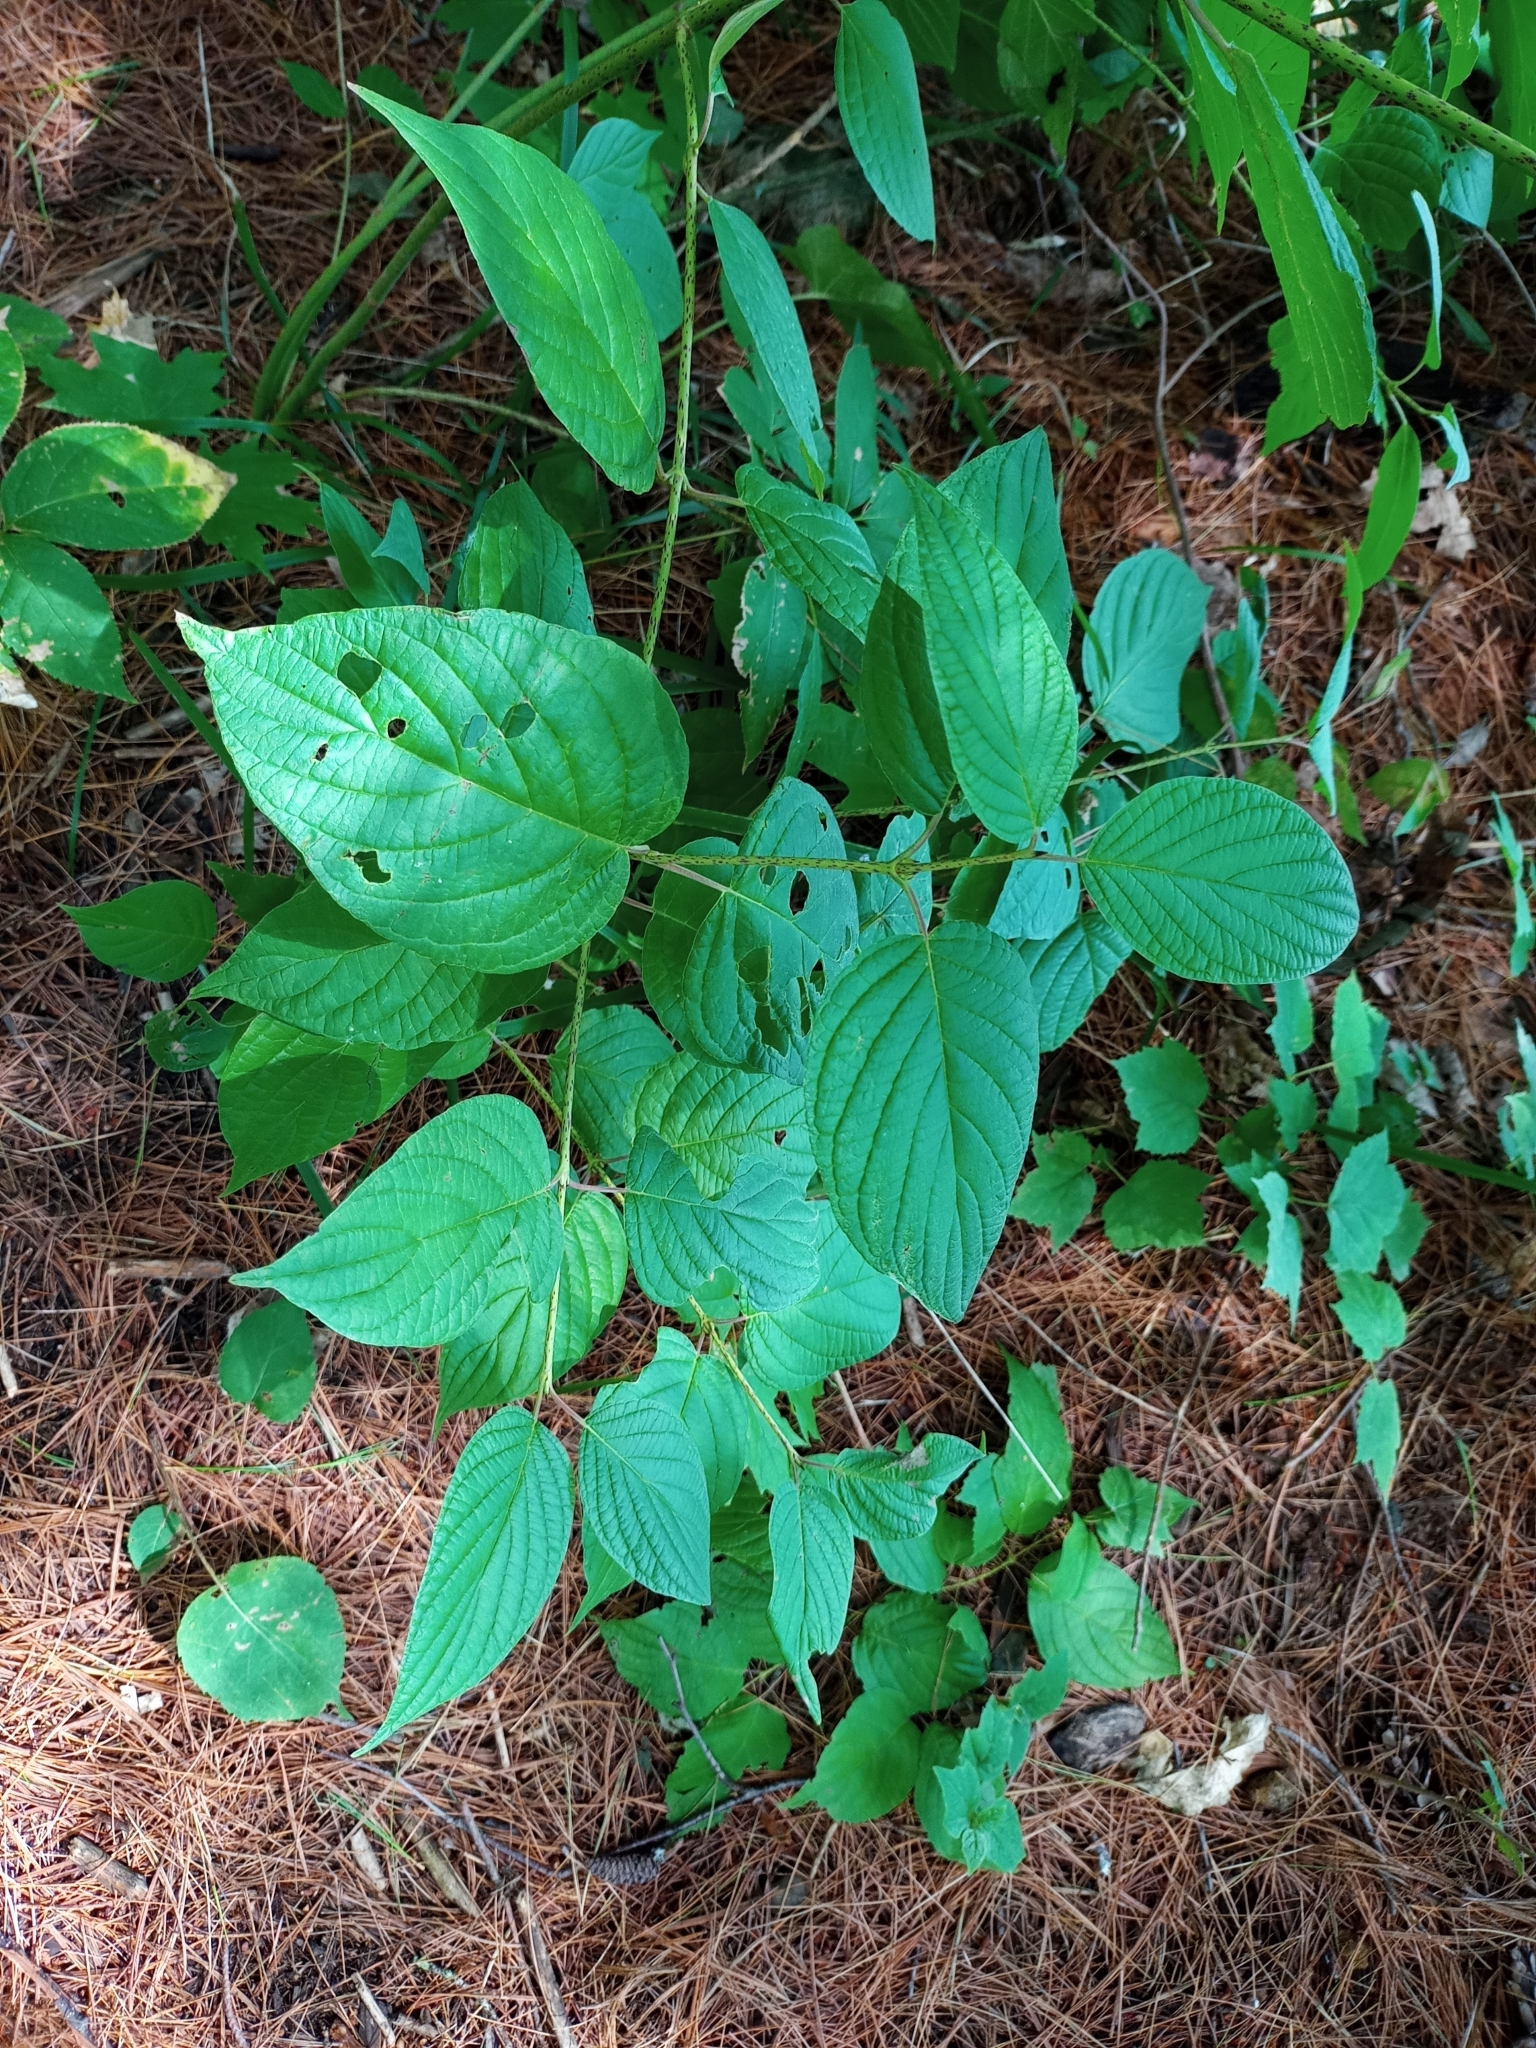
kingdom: Plantae
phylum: Tracheophyta
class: Magnoliopsida
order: Cornales
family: Cornaceae
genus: Cornus
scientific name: Cornus rugosa
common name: Round-leaf dogwood
